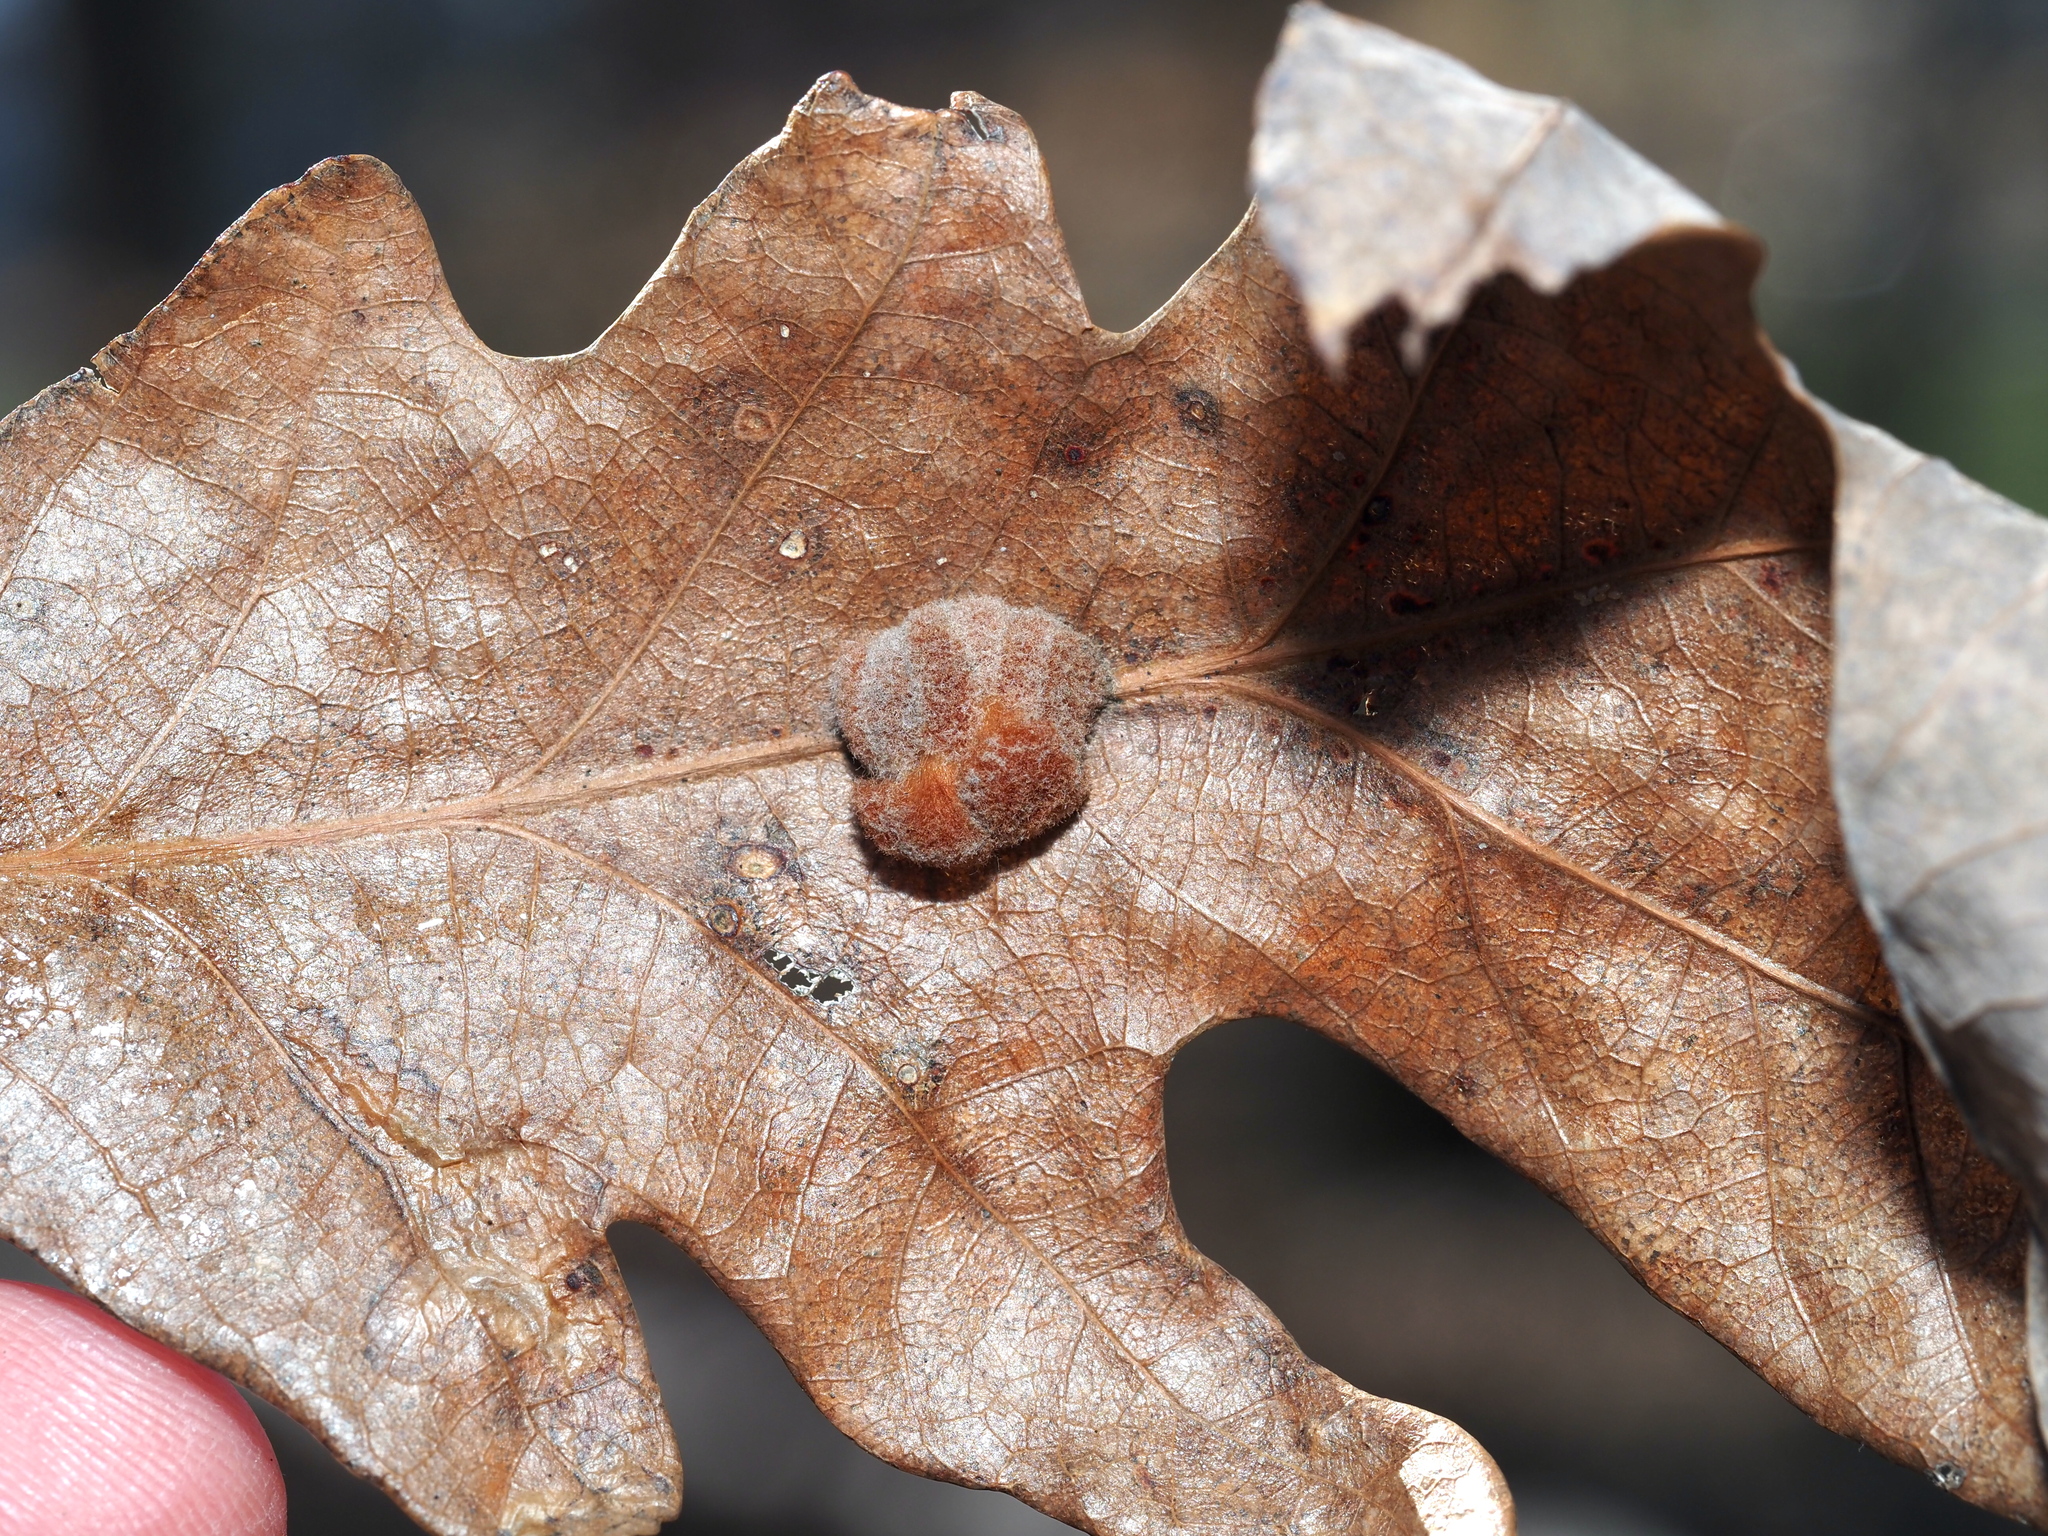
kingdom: Animalia
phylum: Arthropoda
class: Insecta
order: Hymenoptera
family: Cynipidae
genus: Andricus
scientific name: Andricus quercusflocci
